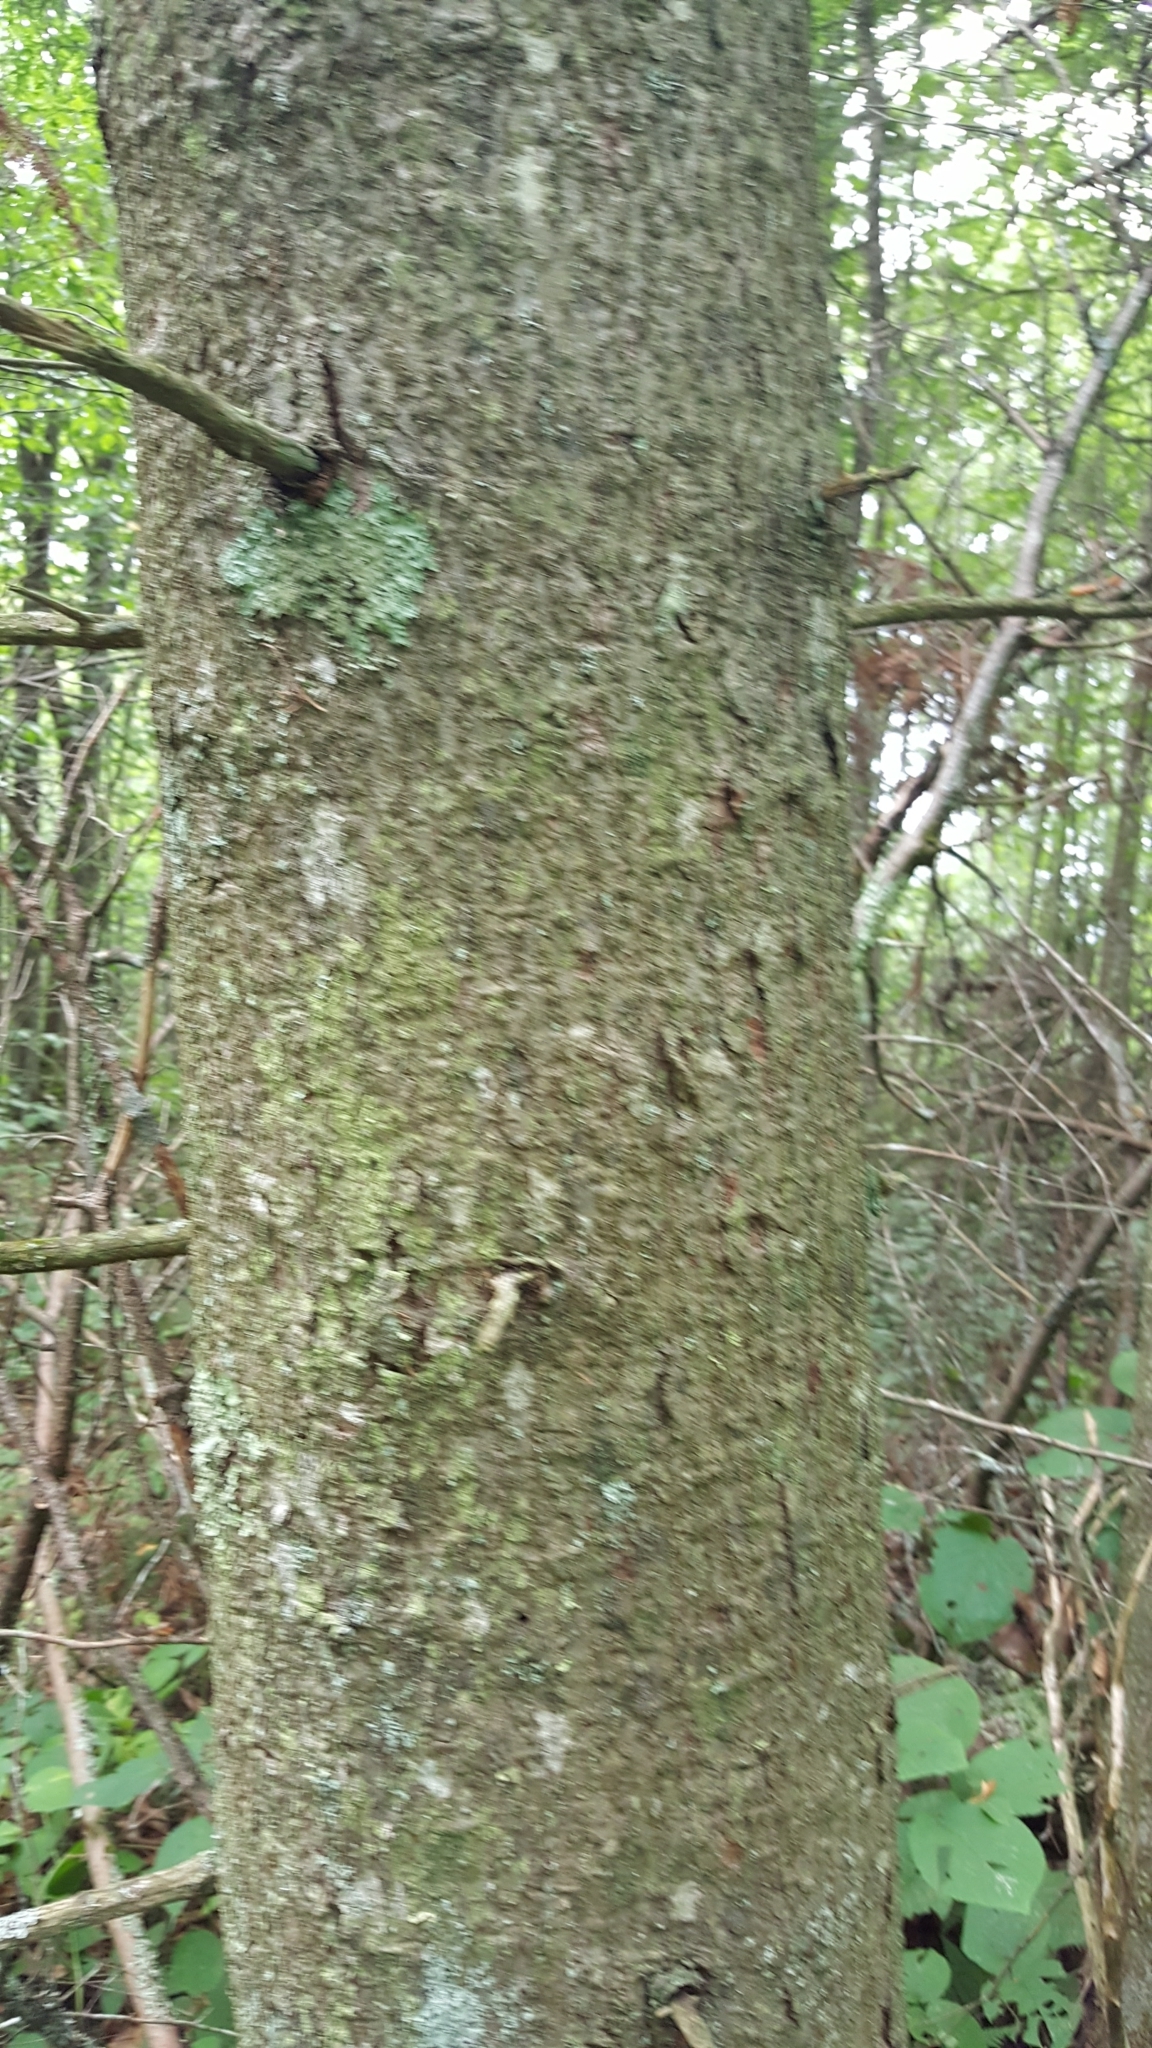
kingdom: Plantae
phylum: Tracheophyta
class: Pinopsida
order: Pinales
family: Pinaceae
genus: Abies
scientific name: Abies balsamea
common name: Balsam fir
